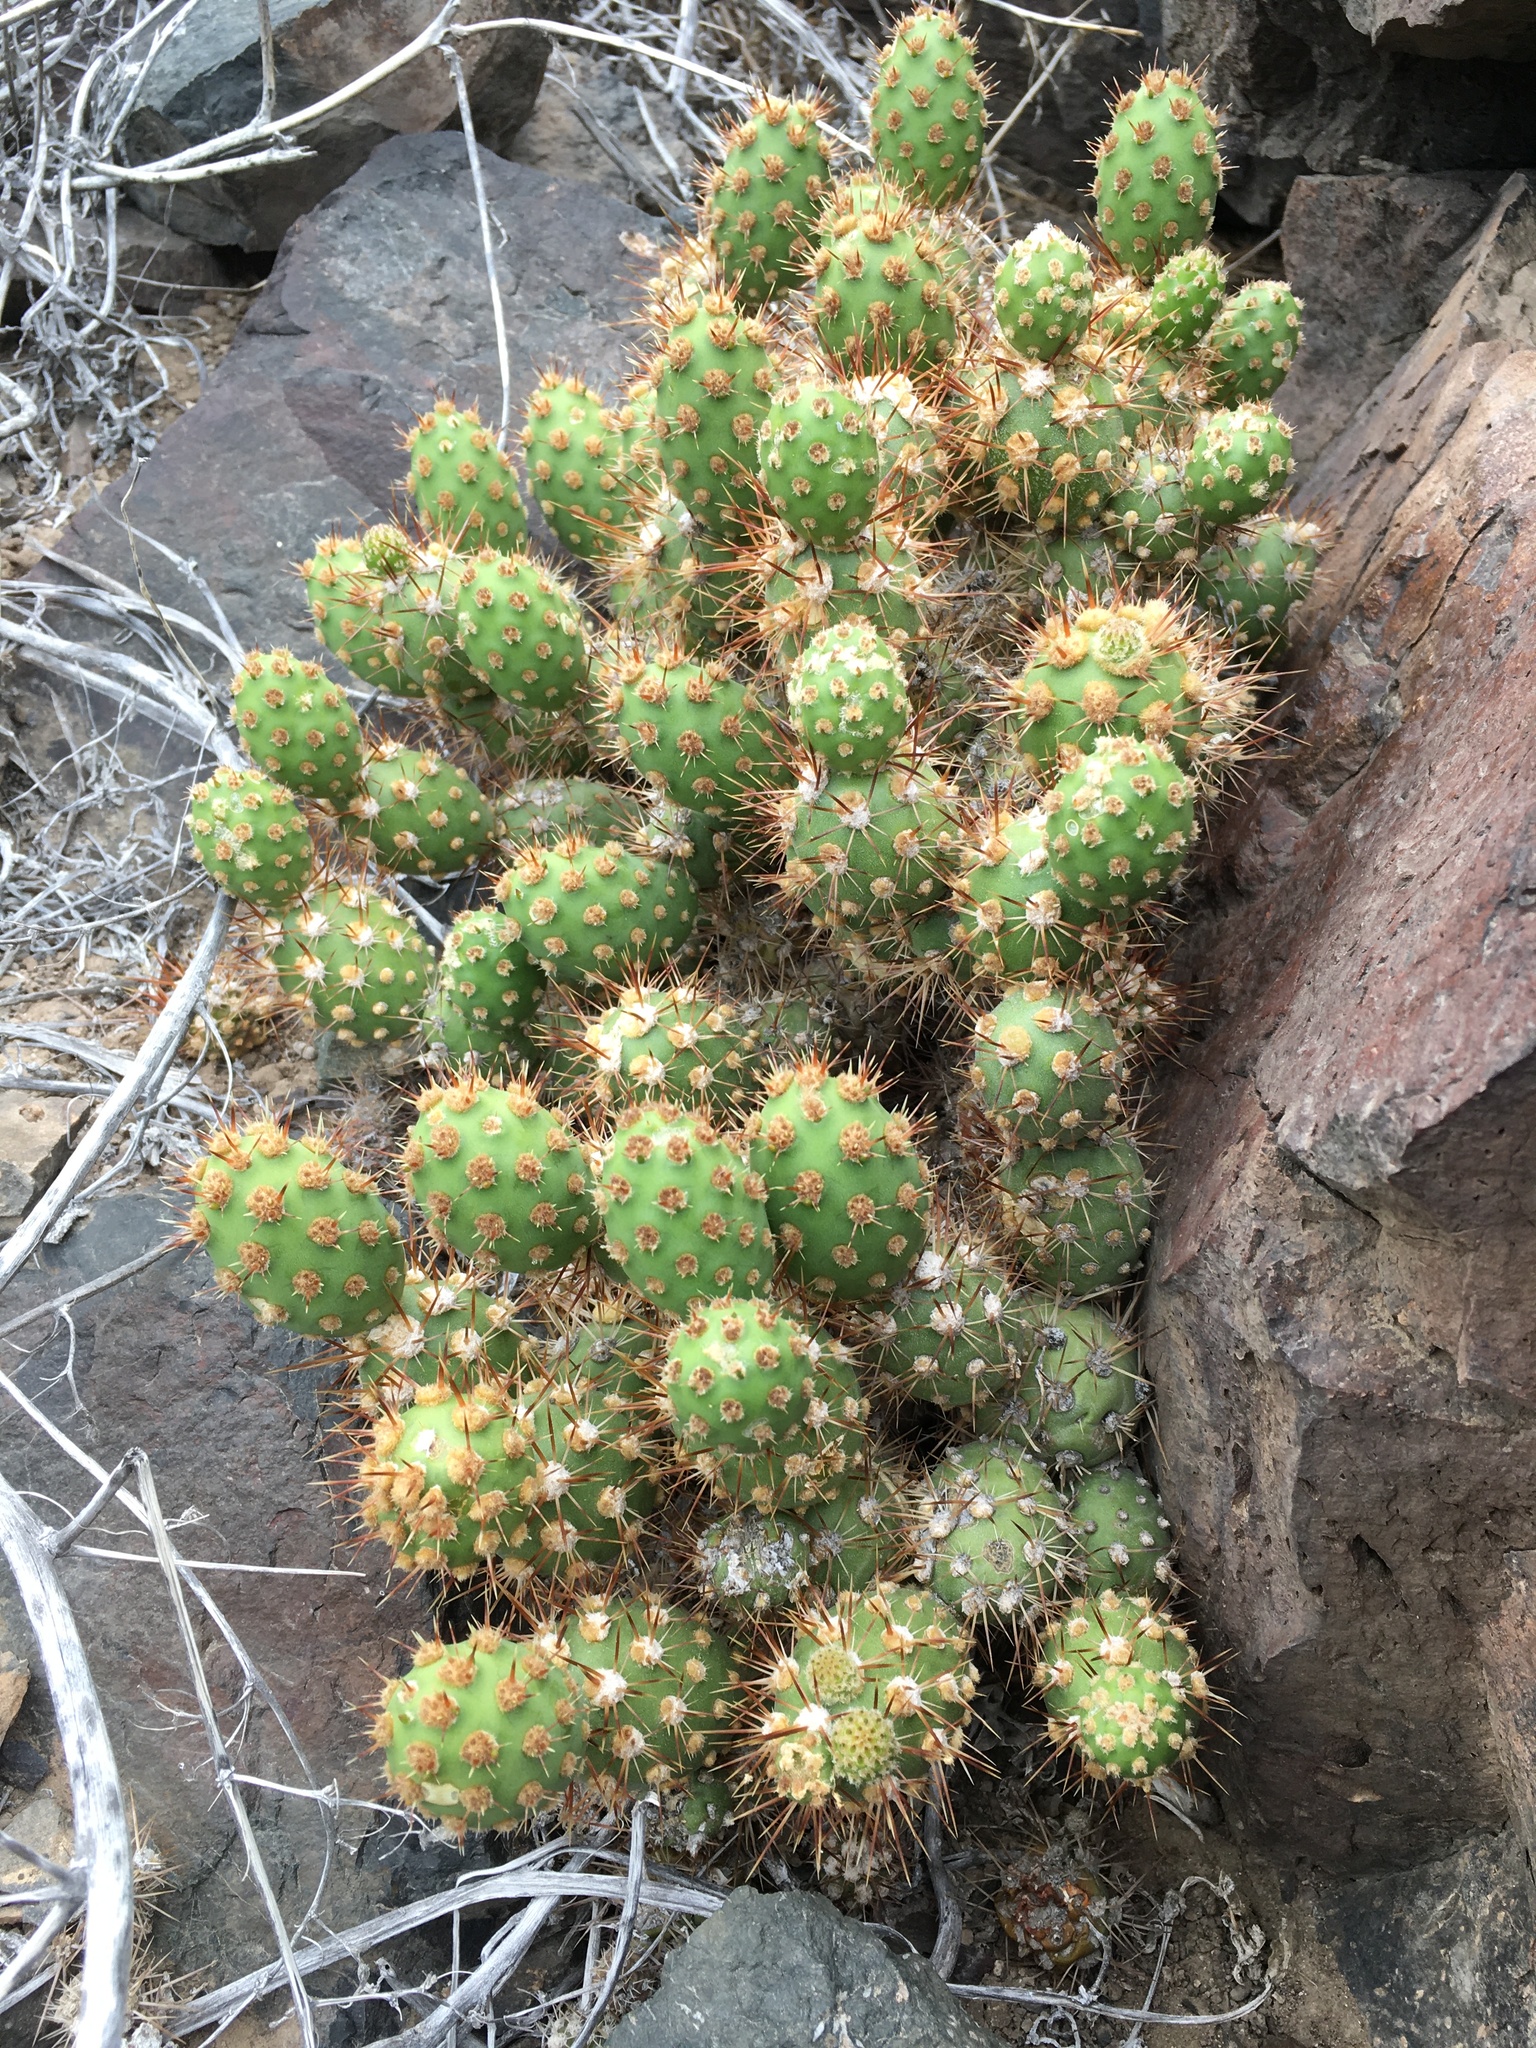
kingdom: Plantae
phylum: Tracheophyta
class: Magnoliopsida
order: Caryophyllales
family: Cactaceae
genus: Cumulopuntia
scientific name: Cumulopuntia leucophaea
